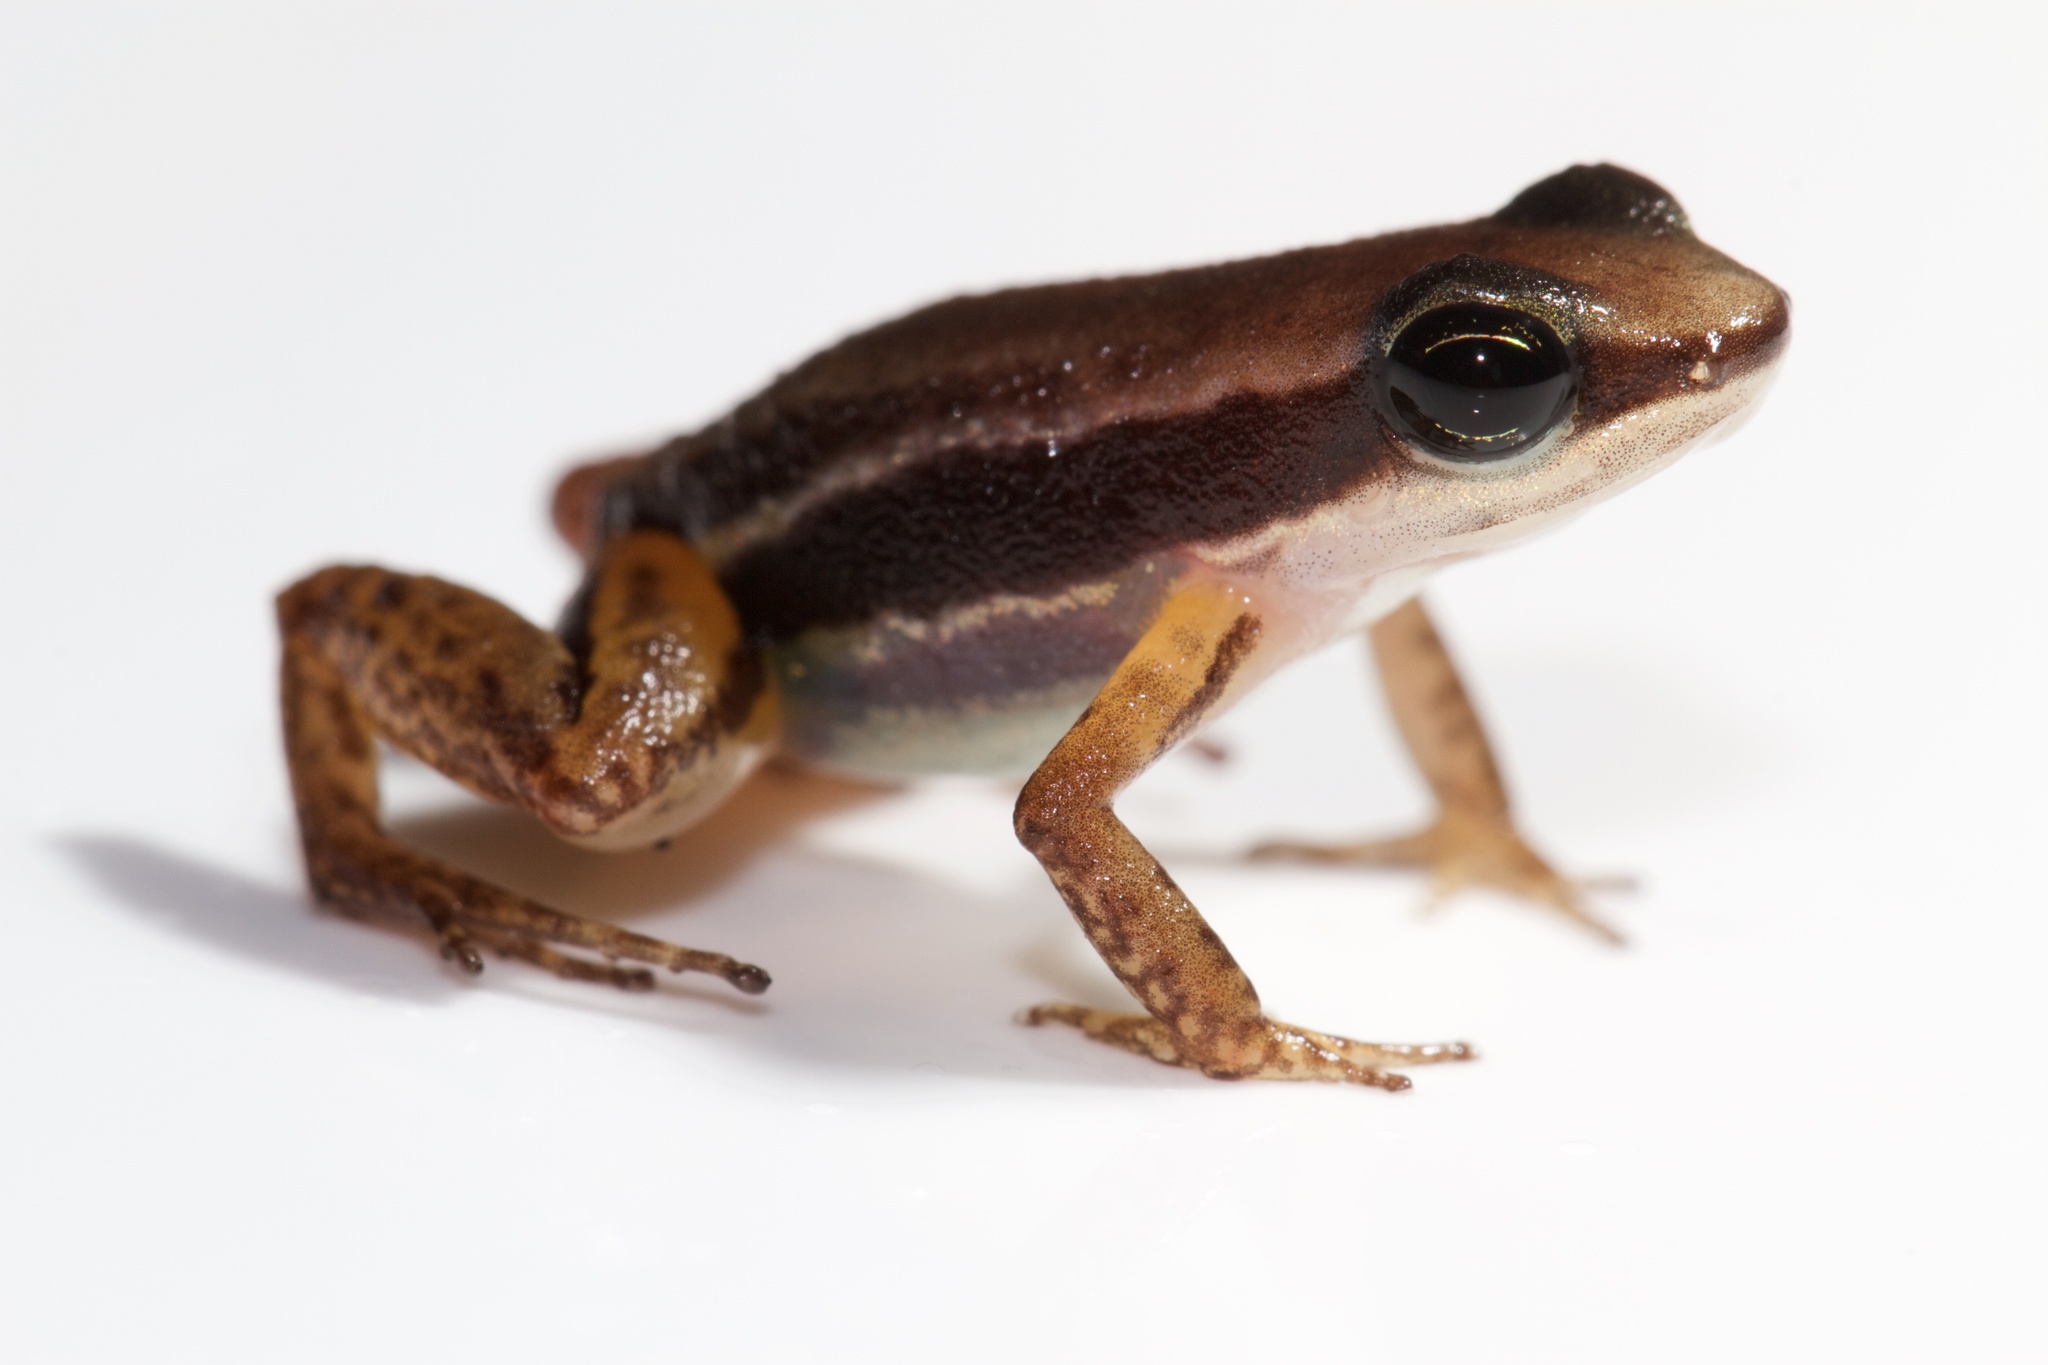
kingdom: Animalia
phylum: Chordata
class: Amphibia
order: Anura
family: Dendrobatidae
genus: Silverstoneia
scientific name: Silverstoneia flotator
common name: Rainforest rocket frog
